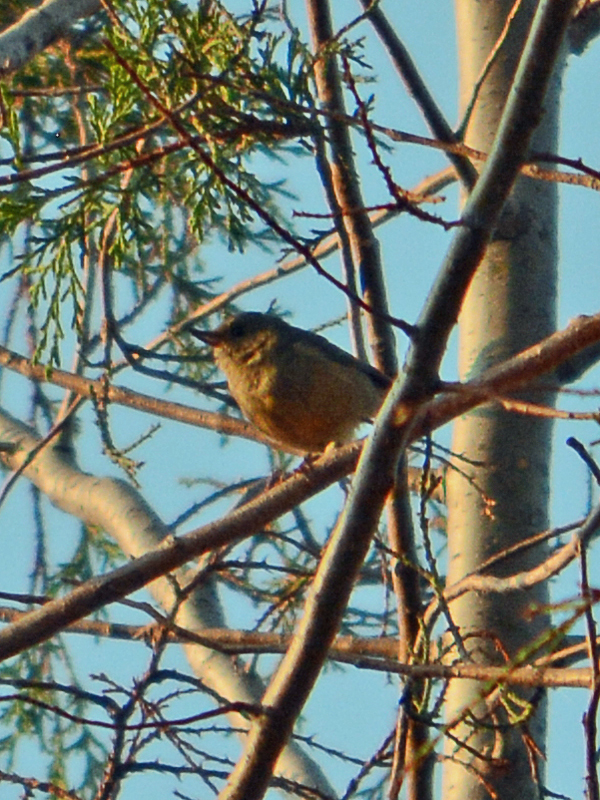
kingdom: Animalia
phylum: Chordata
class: Aves
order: Passeriformes
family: Thraupidae
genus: Diglossa
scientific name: Diglossa baritula
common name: Cinnamon-bellied flowerpiercer
